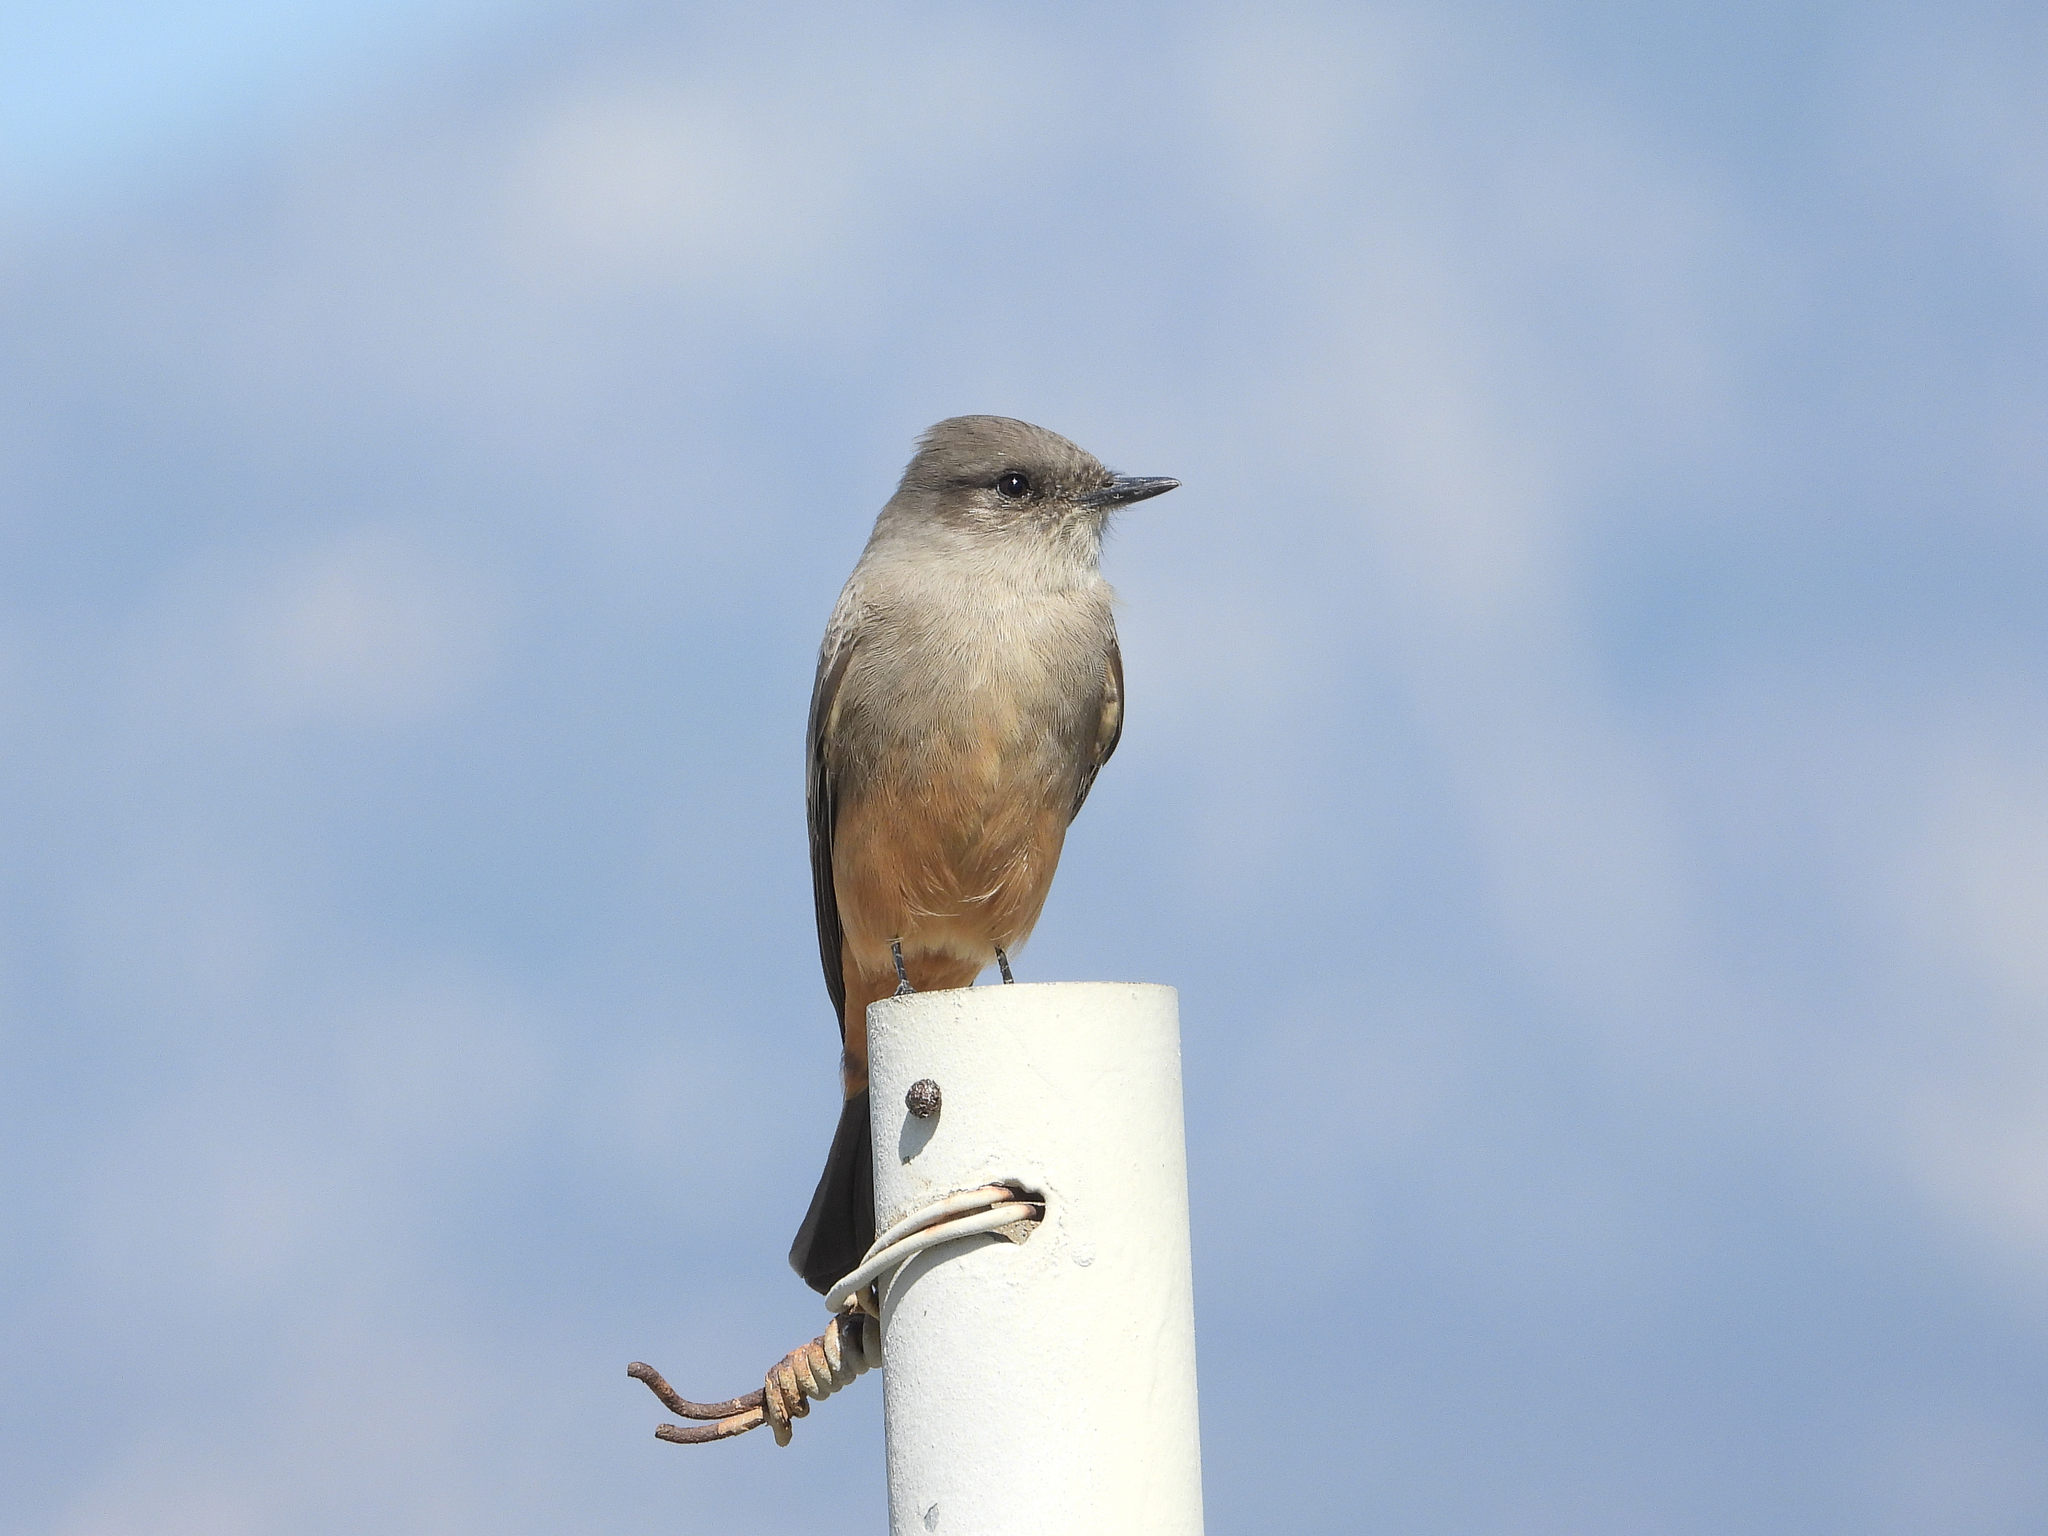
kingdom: Animalia
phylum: Chordata
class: Aves
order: Passeriformes
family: Tyrannidae
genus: Sayornis
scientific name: Sayornis saya
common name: Say's phoebe
